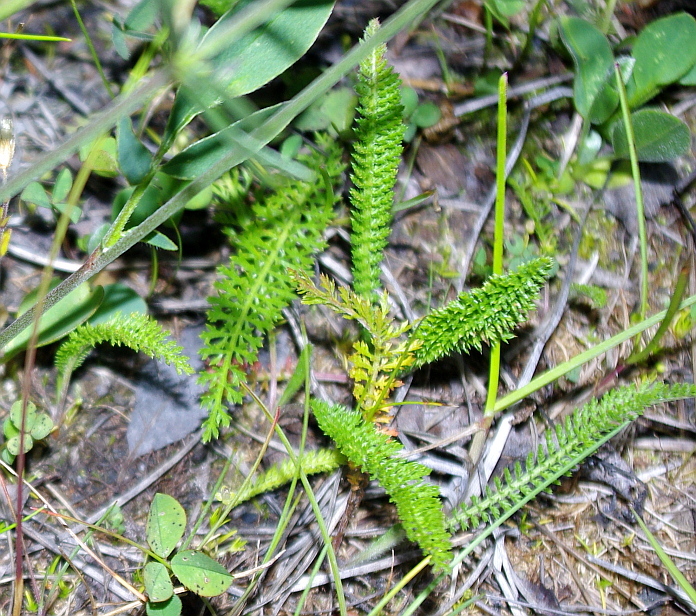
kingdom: Plantae
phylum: Tracheophyta
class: Magnoliopsida
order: Asterales
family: Asteraceae
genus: Achillea
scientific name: Achillea millefolium
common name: Yarrow
